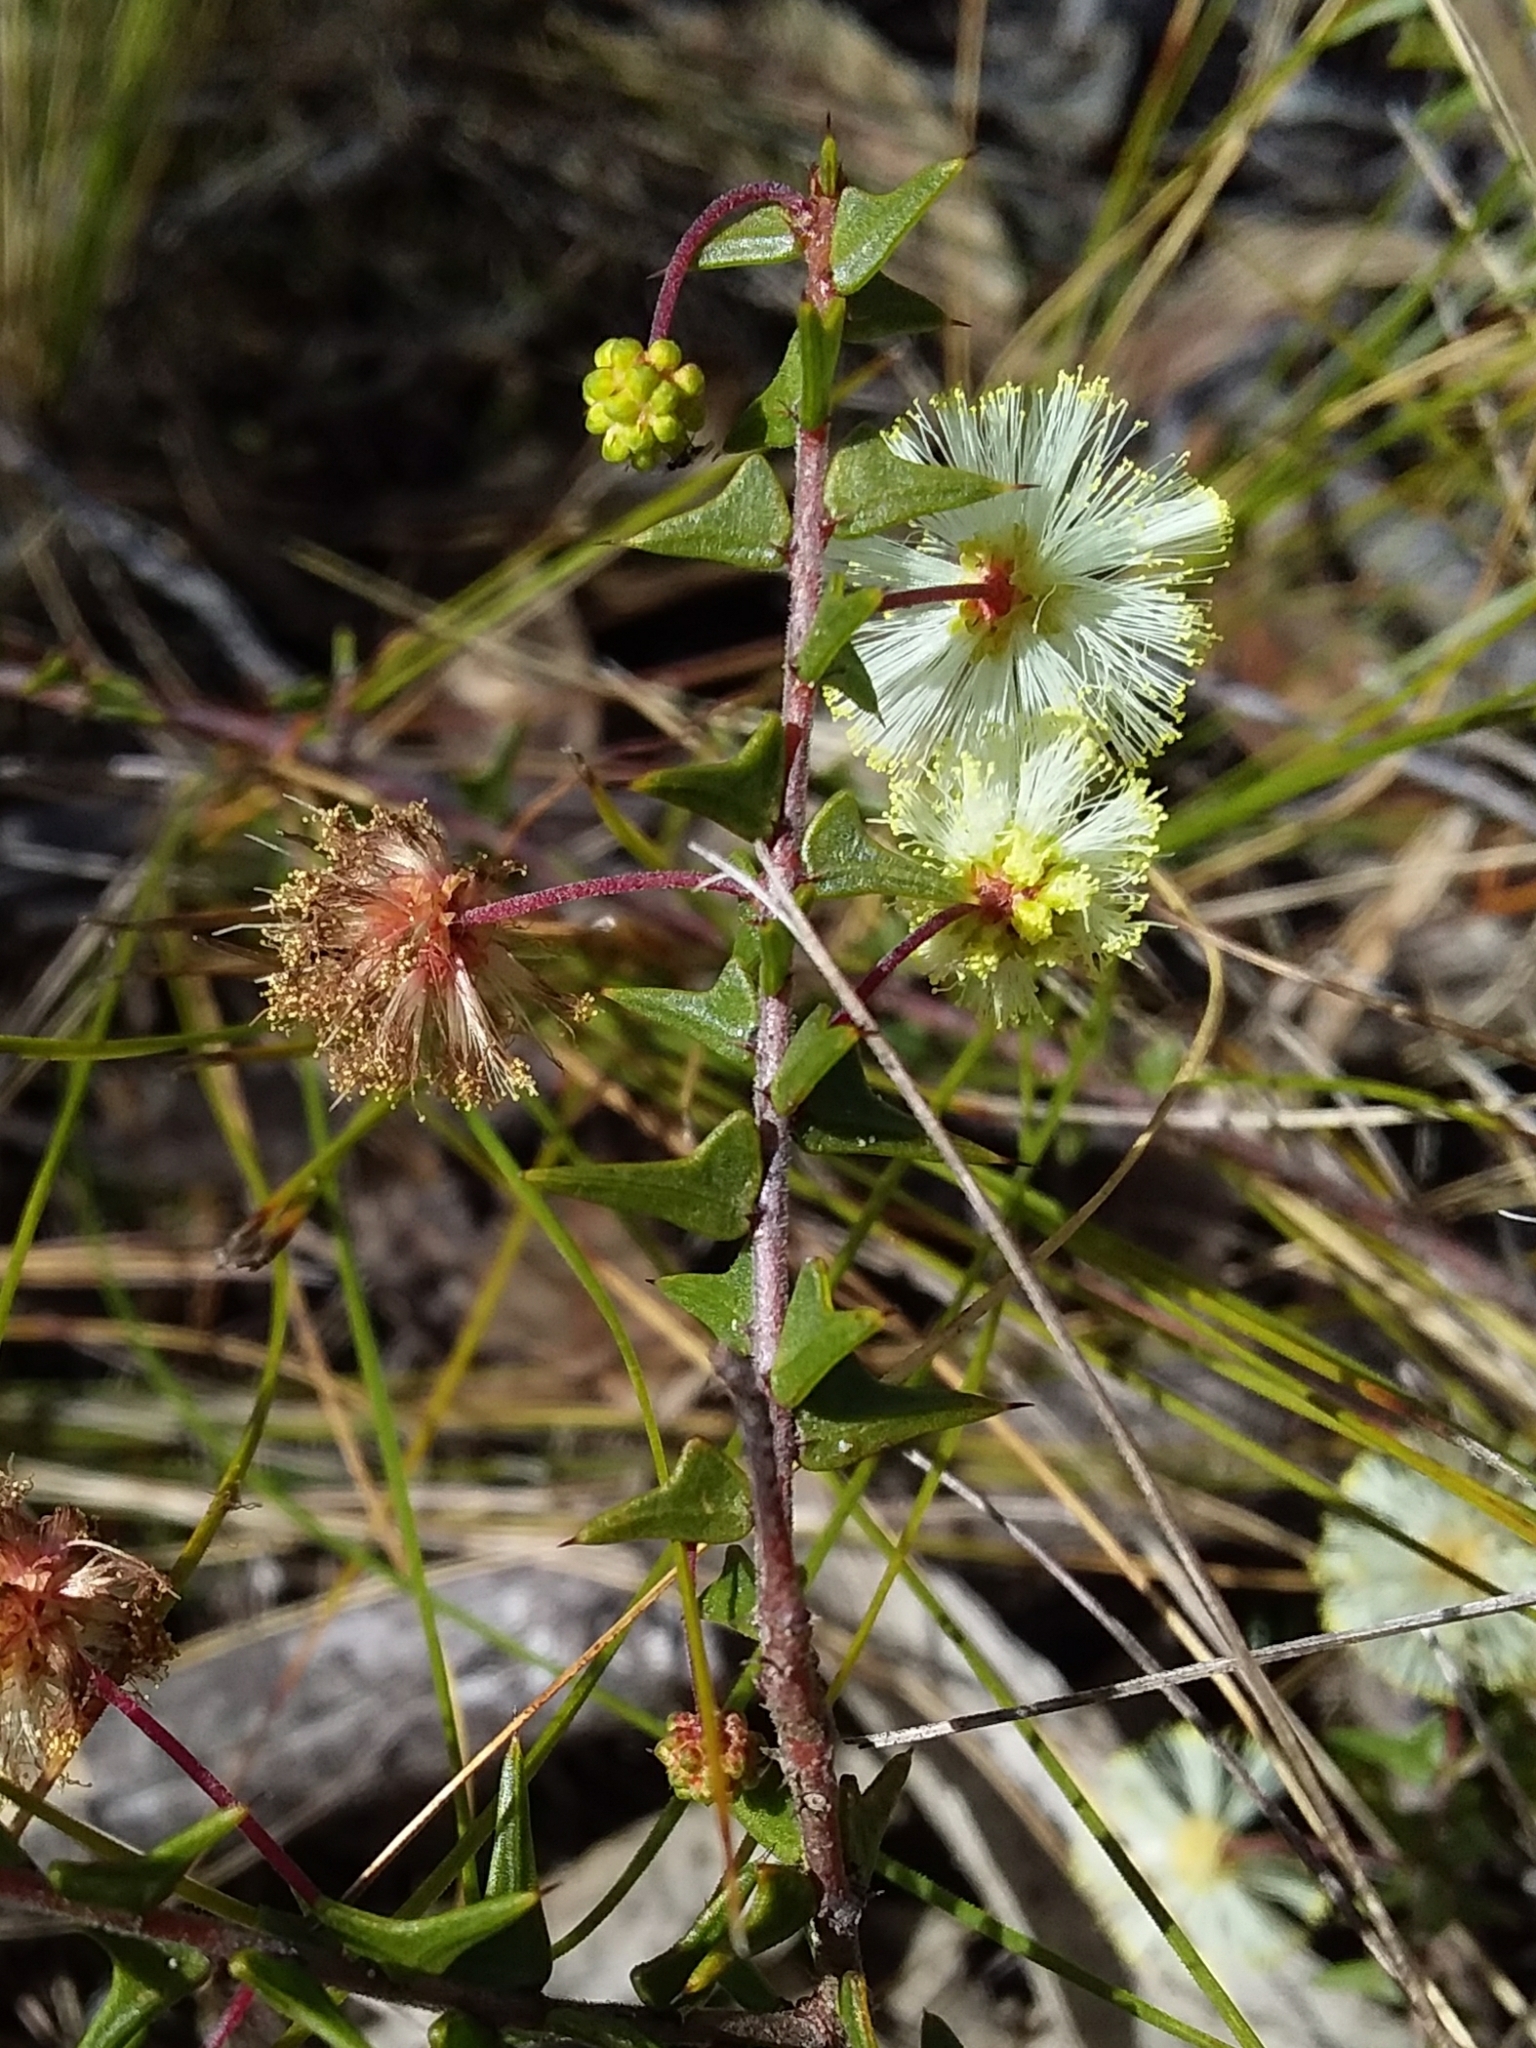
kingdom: Plantae
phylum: Tracheophyta
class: Magnoliopsida
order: Fabales
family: Fabaceae
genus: Acacia
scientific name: Acacia gunnii
